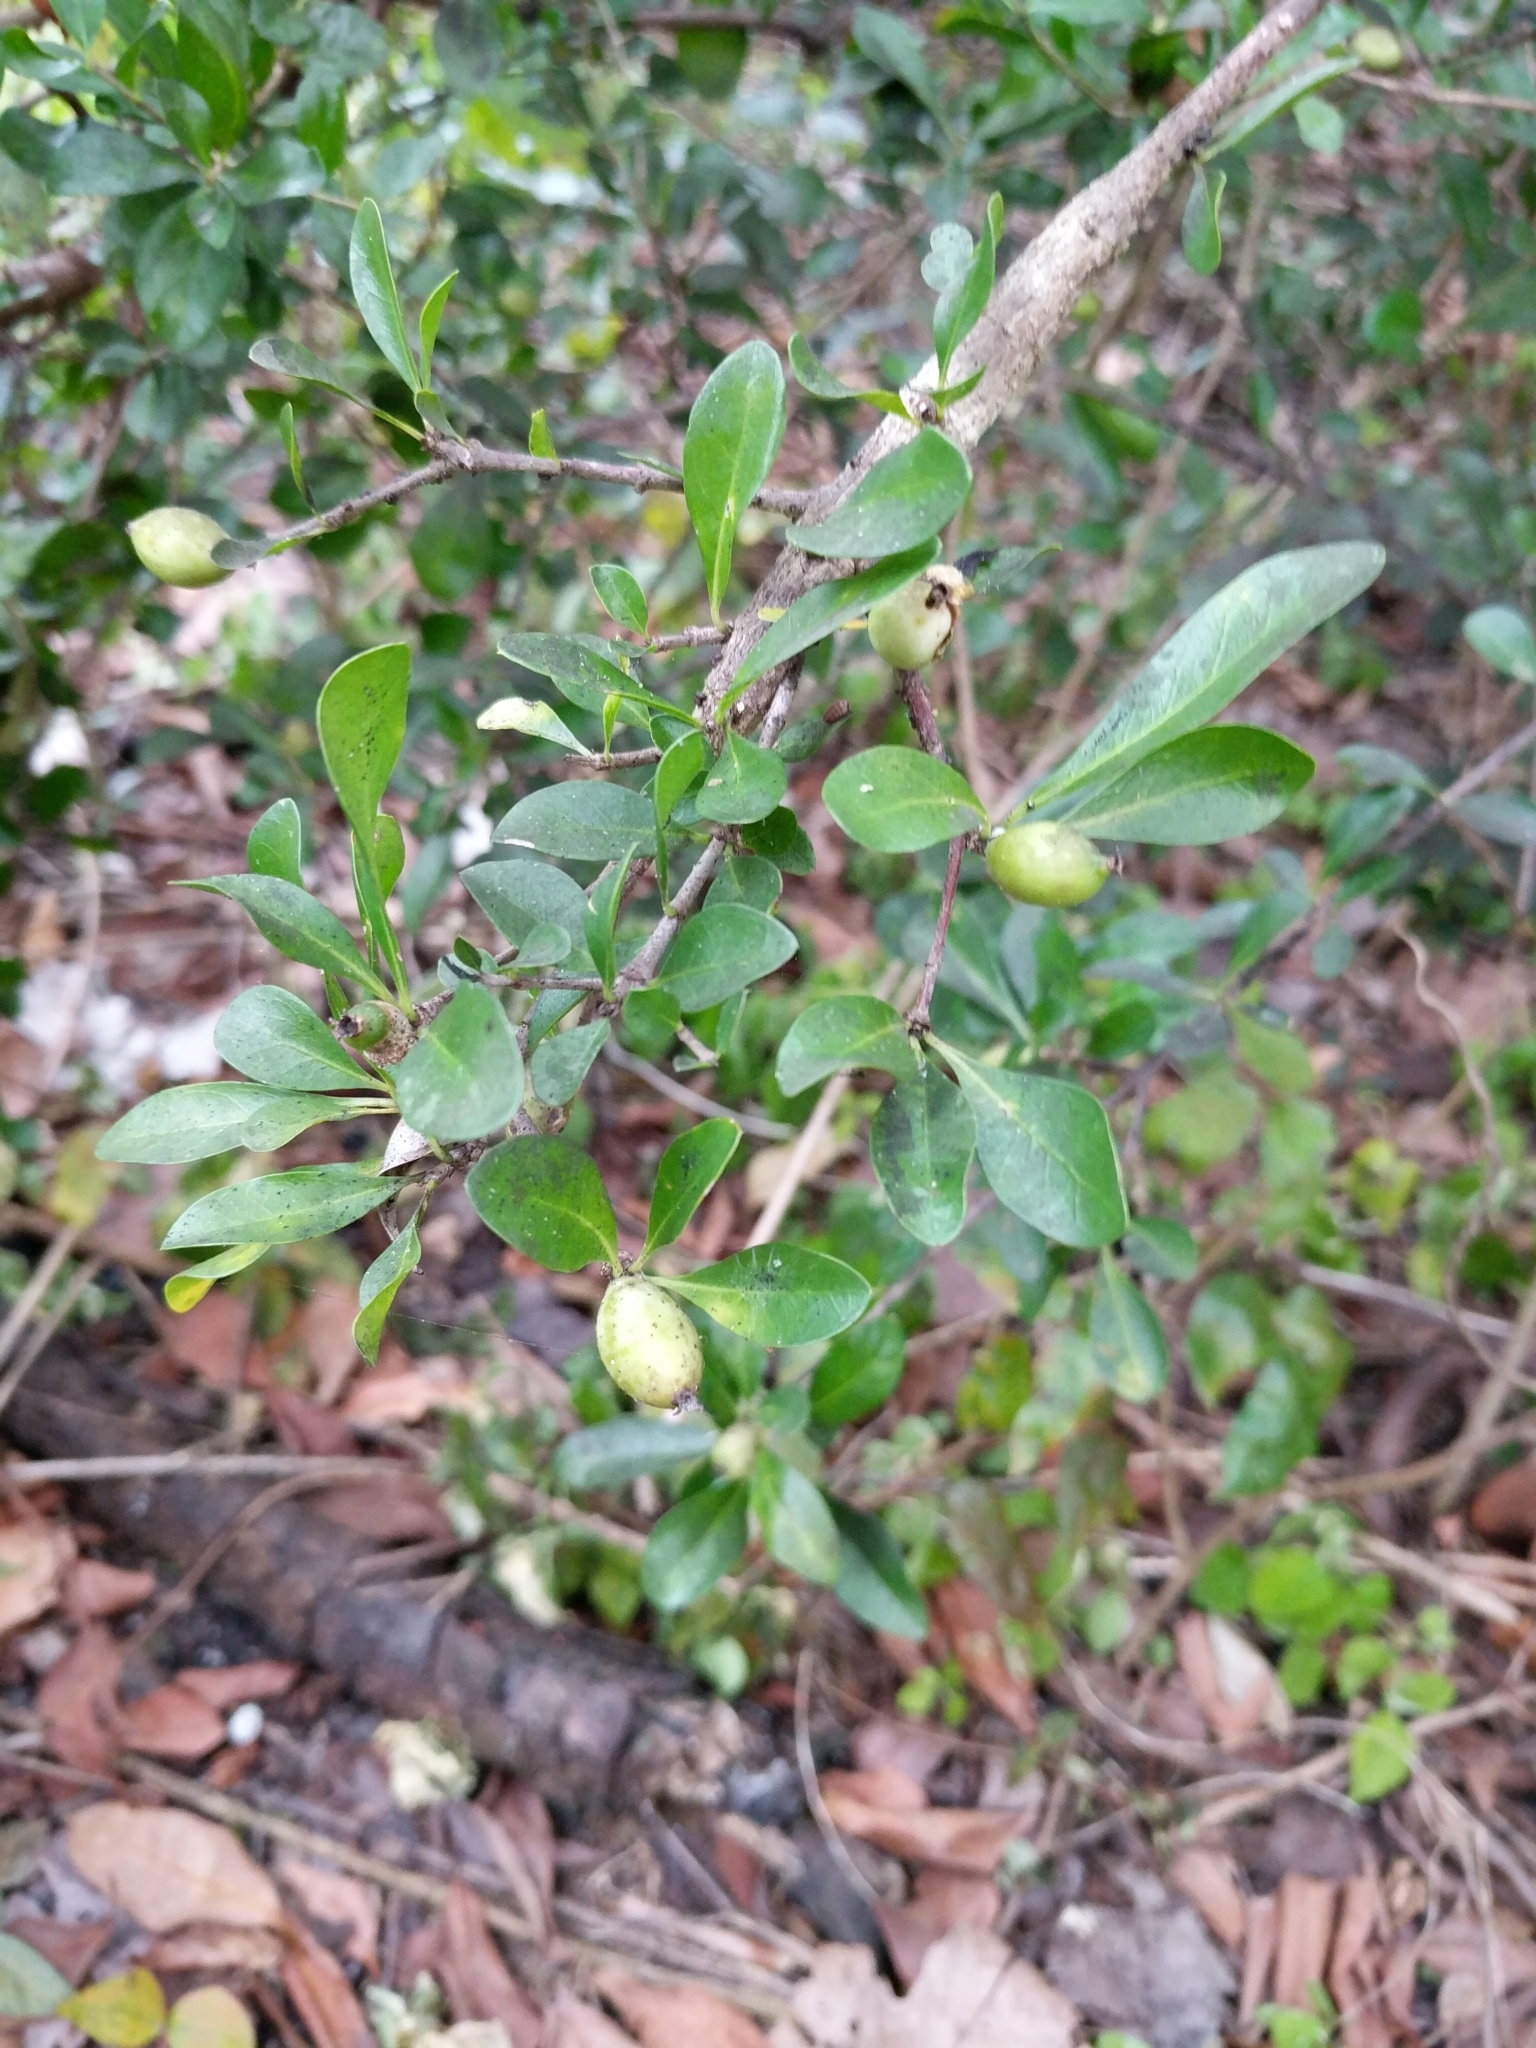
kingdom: Plantae
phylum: Tracheophyta
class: Magnoliopsida
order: Gentianales
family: Rubiaceae
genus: Randia
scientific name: Randia aculeata
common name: Inkberry
